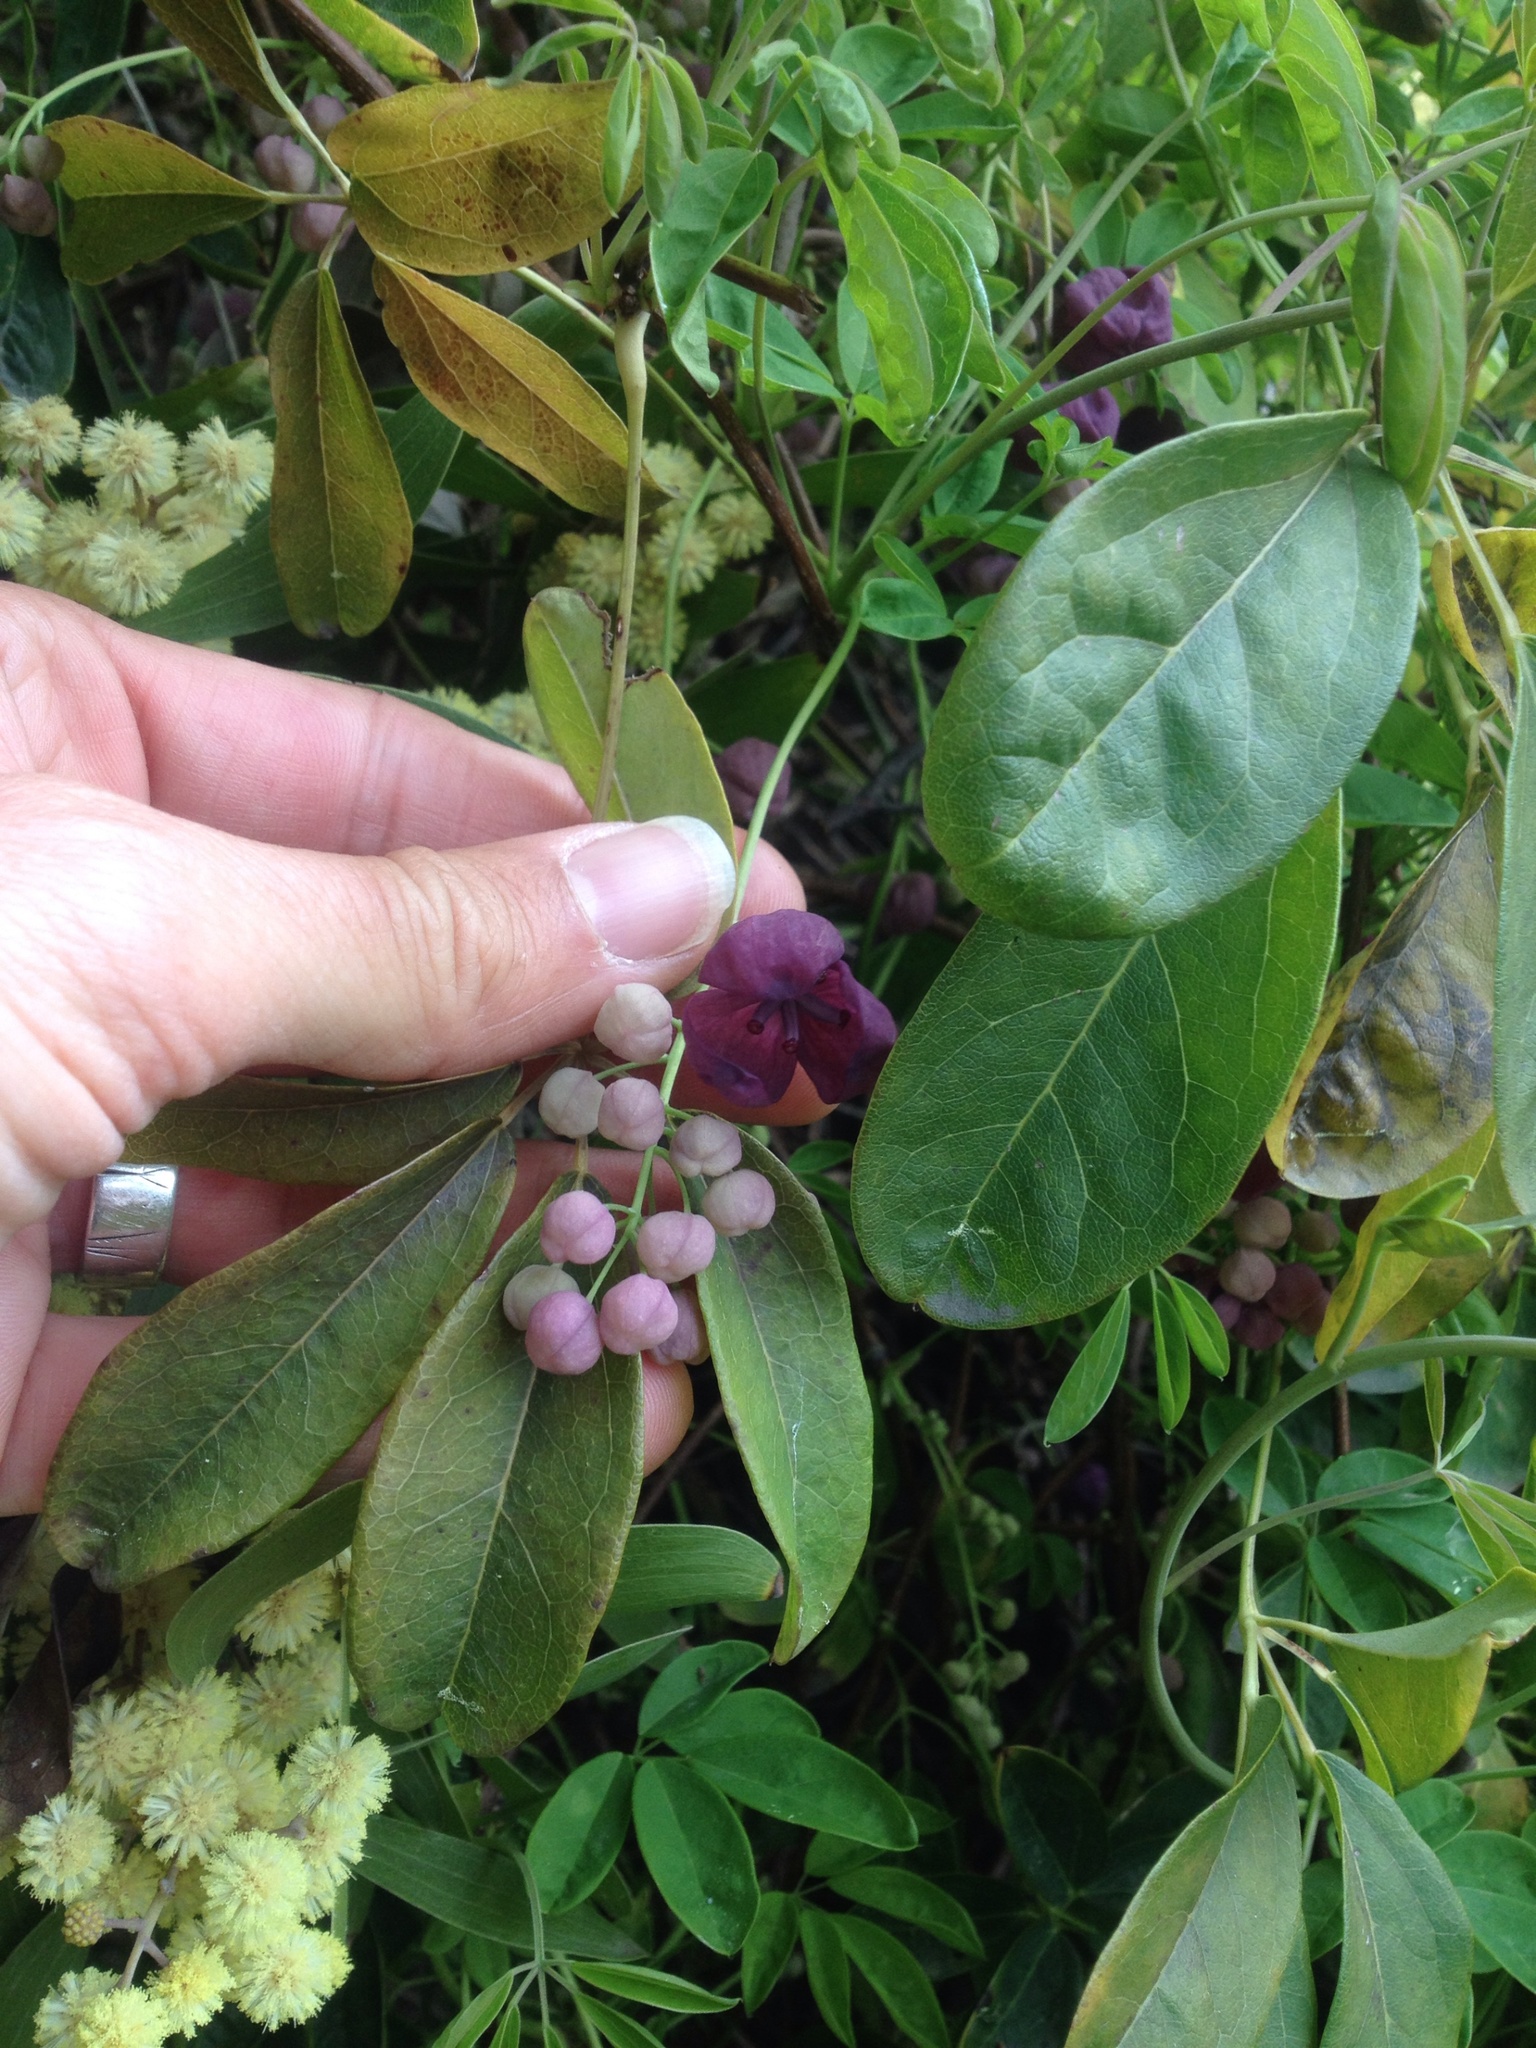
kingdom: Plantae
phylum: Tracheophyta
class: Magnoliopsida
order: Ranunculales
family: Lardizabalaceae
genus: Akebia
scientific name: Akebia quinata
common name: Five-leaf akebia
